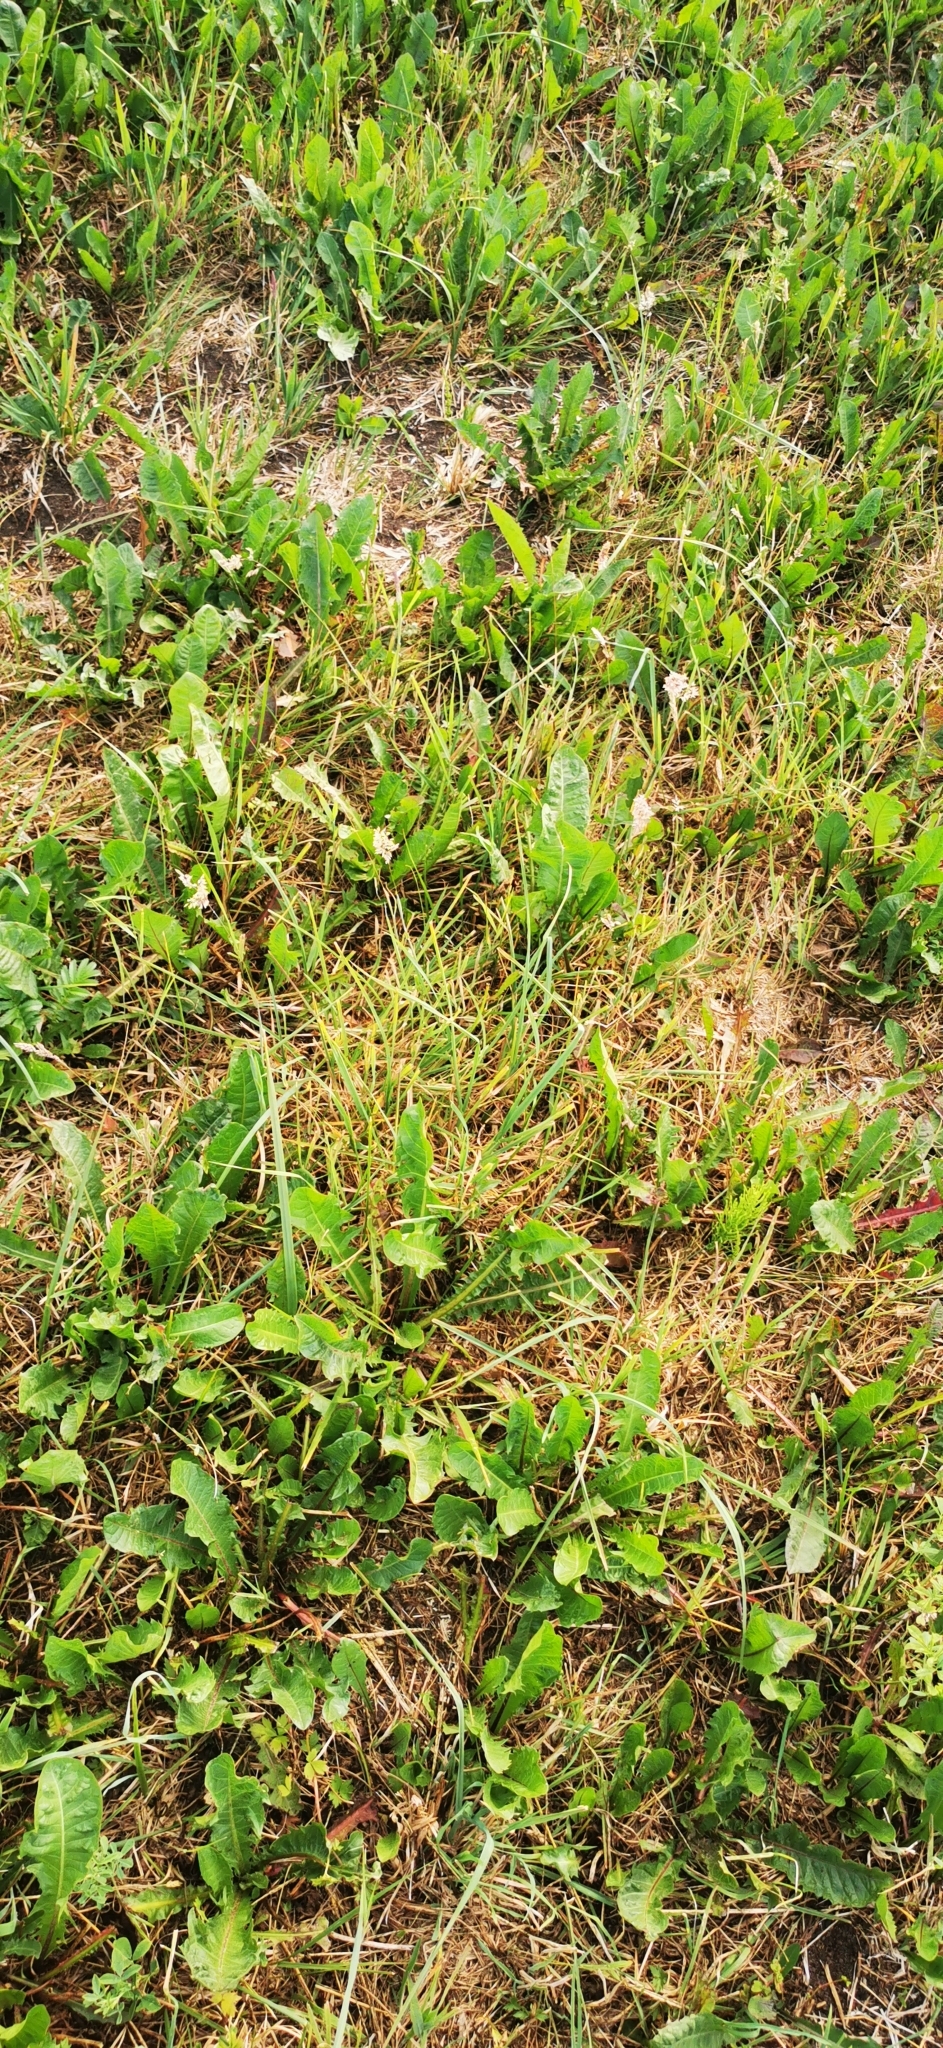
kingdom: Plantae
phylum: Tracheophyta
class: Magnoliopsida
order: Asterales
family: Asteraceae
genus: Taraxacum
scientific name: Taraxacum officinale
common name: Common dandelion
